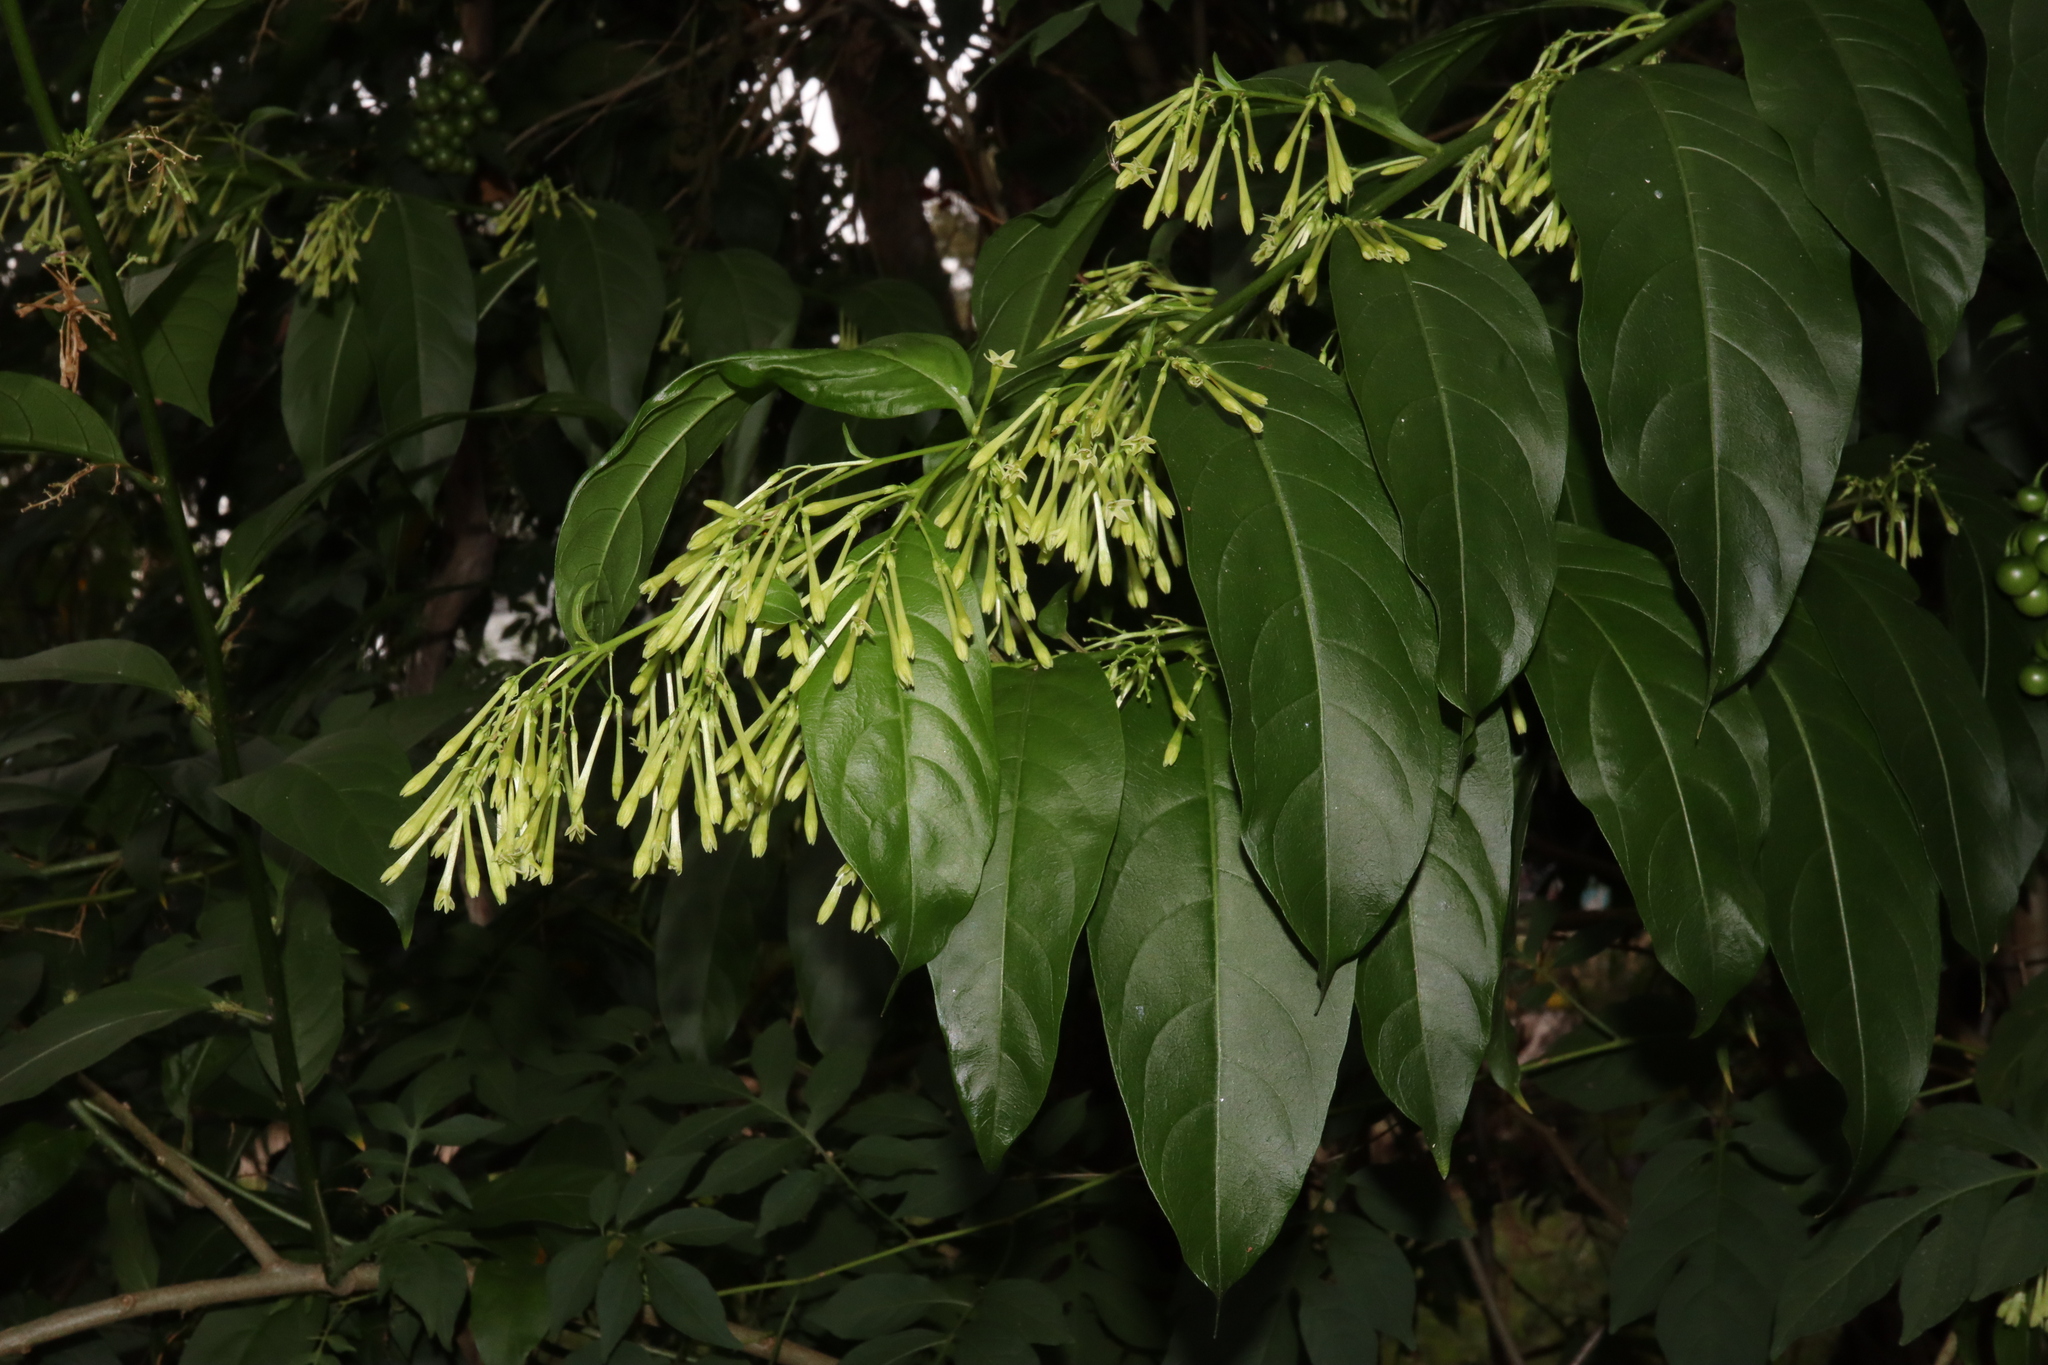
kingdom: Plantae
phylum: Tracheophyta
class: Magnoliopsida
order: Solanales
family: Solanaceae
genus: Cestrum
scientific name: Cestrum nocturnum
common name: Night jessamine
